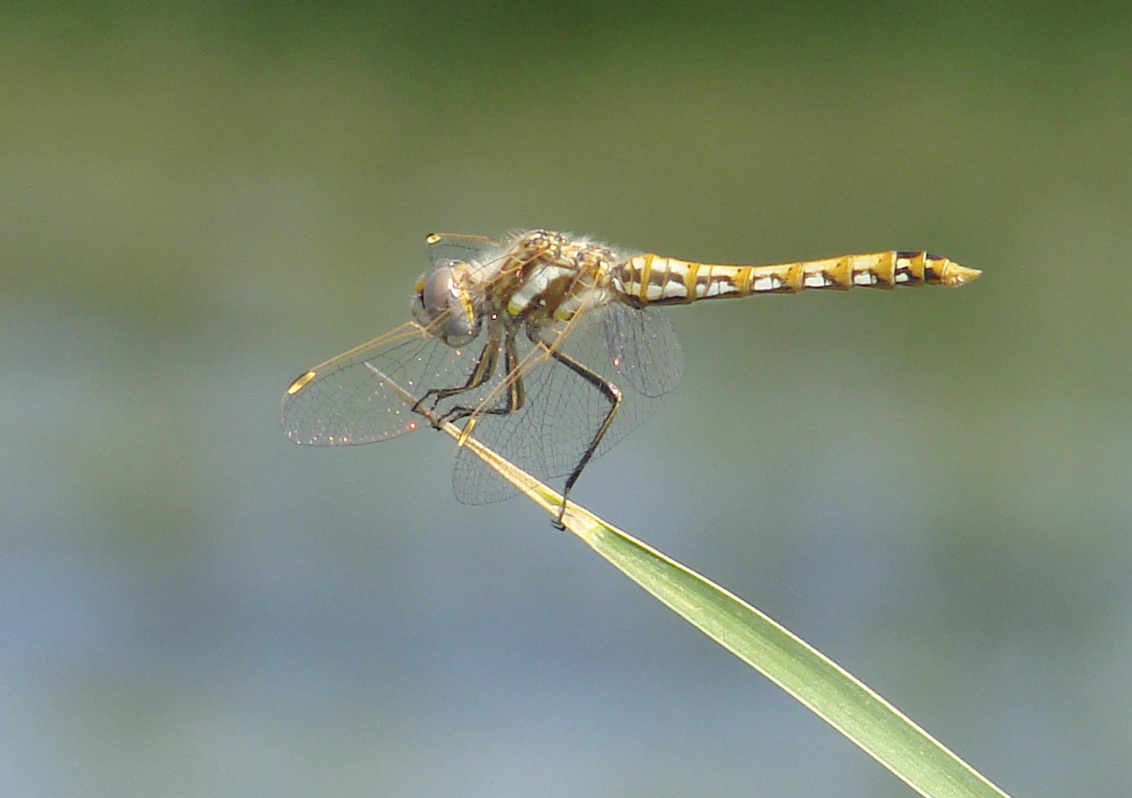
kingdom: Animalia
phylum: Arthropoda
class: Insecta
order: Odonata
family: Libellulidae
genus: Sympetrum
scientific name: Sympetrum corruptum
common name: Variegated meadowhawk
